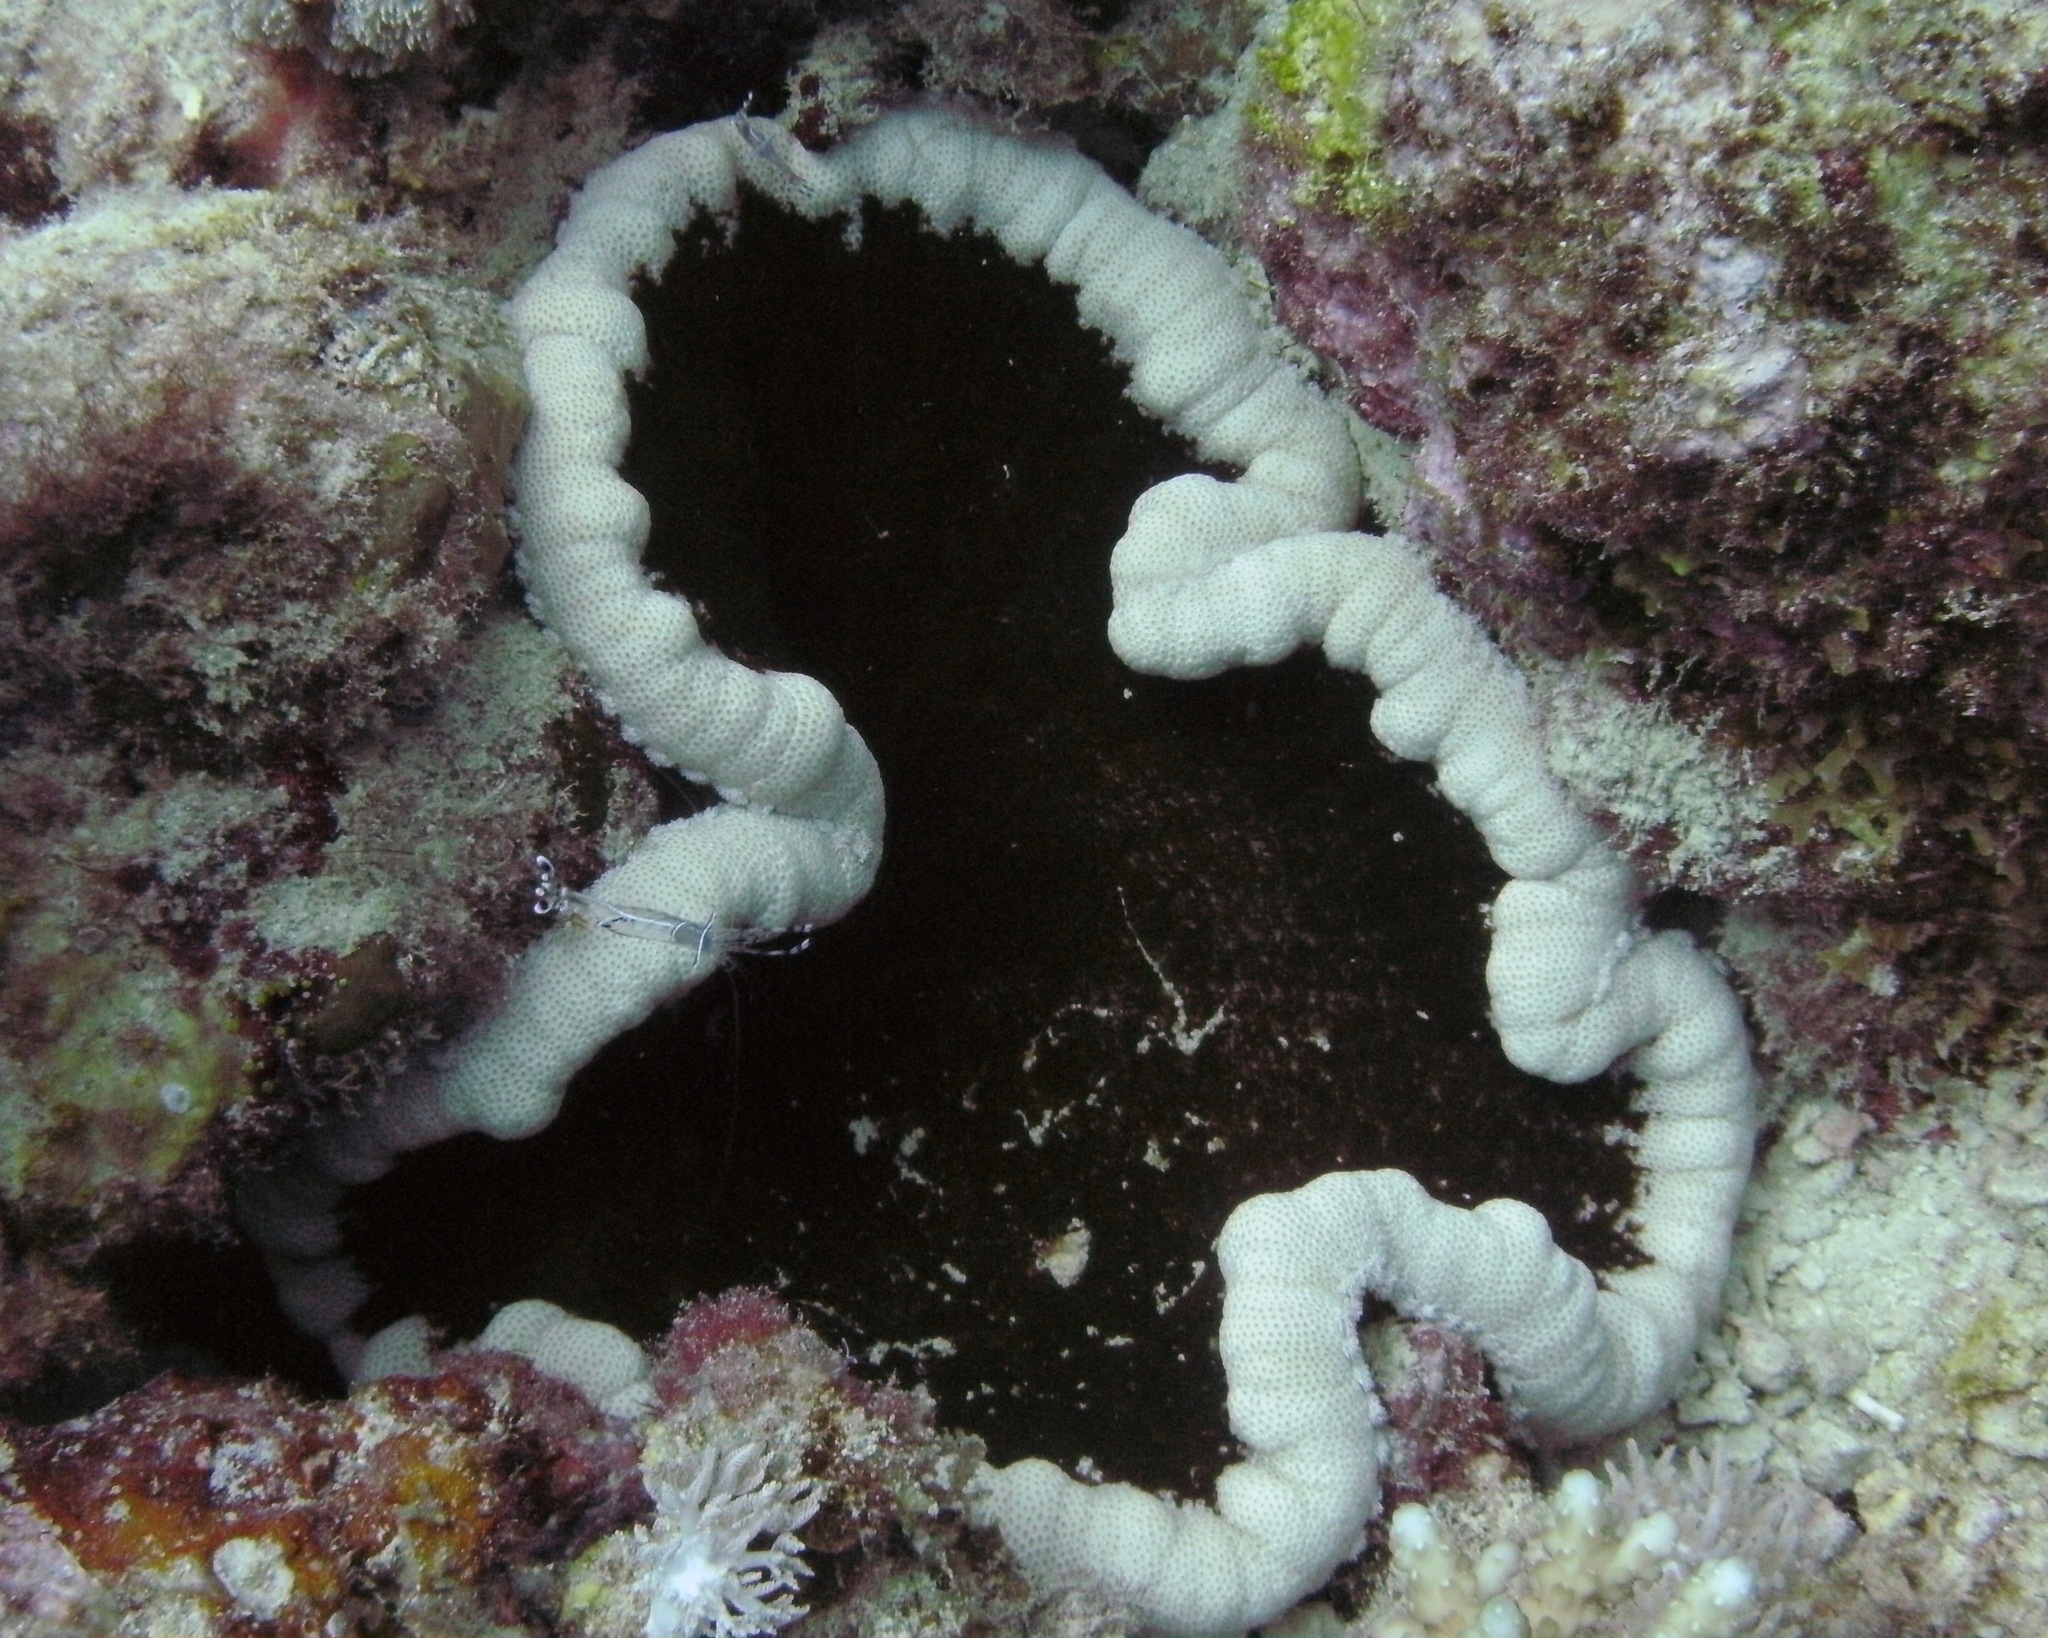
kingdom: Animalia
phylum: Cnidaria
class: Anthozoa
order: Actiniaria
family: Thalassianthidae
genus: Cryptodendrum
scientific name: Cryptodendrum adhaesivum
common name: Adhesive sea anemone
